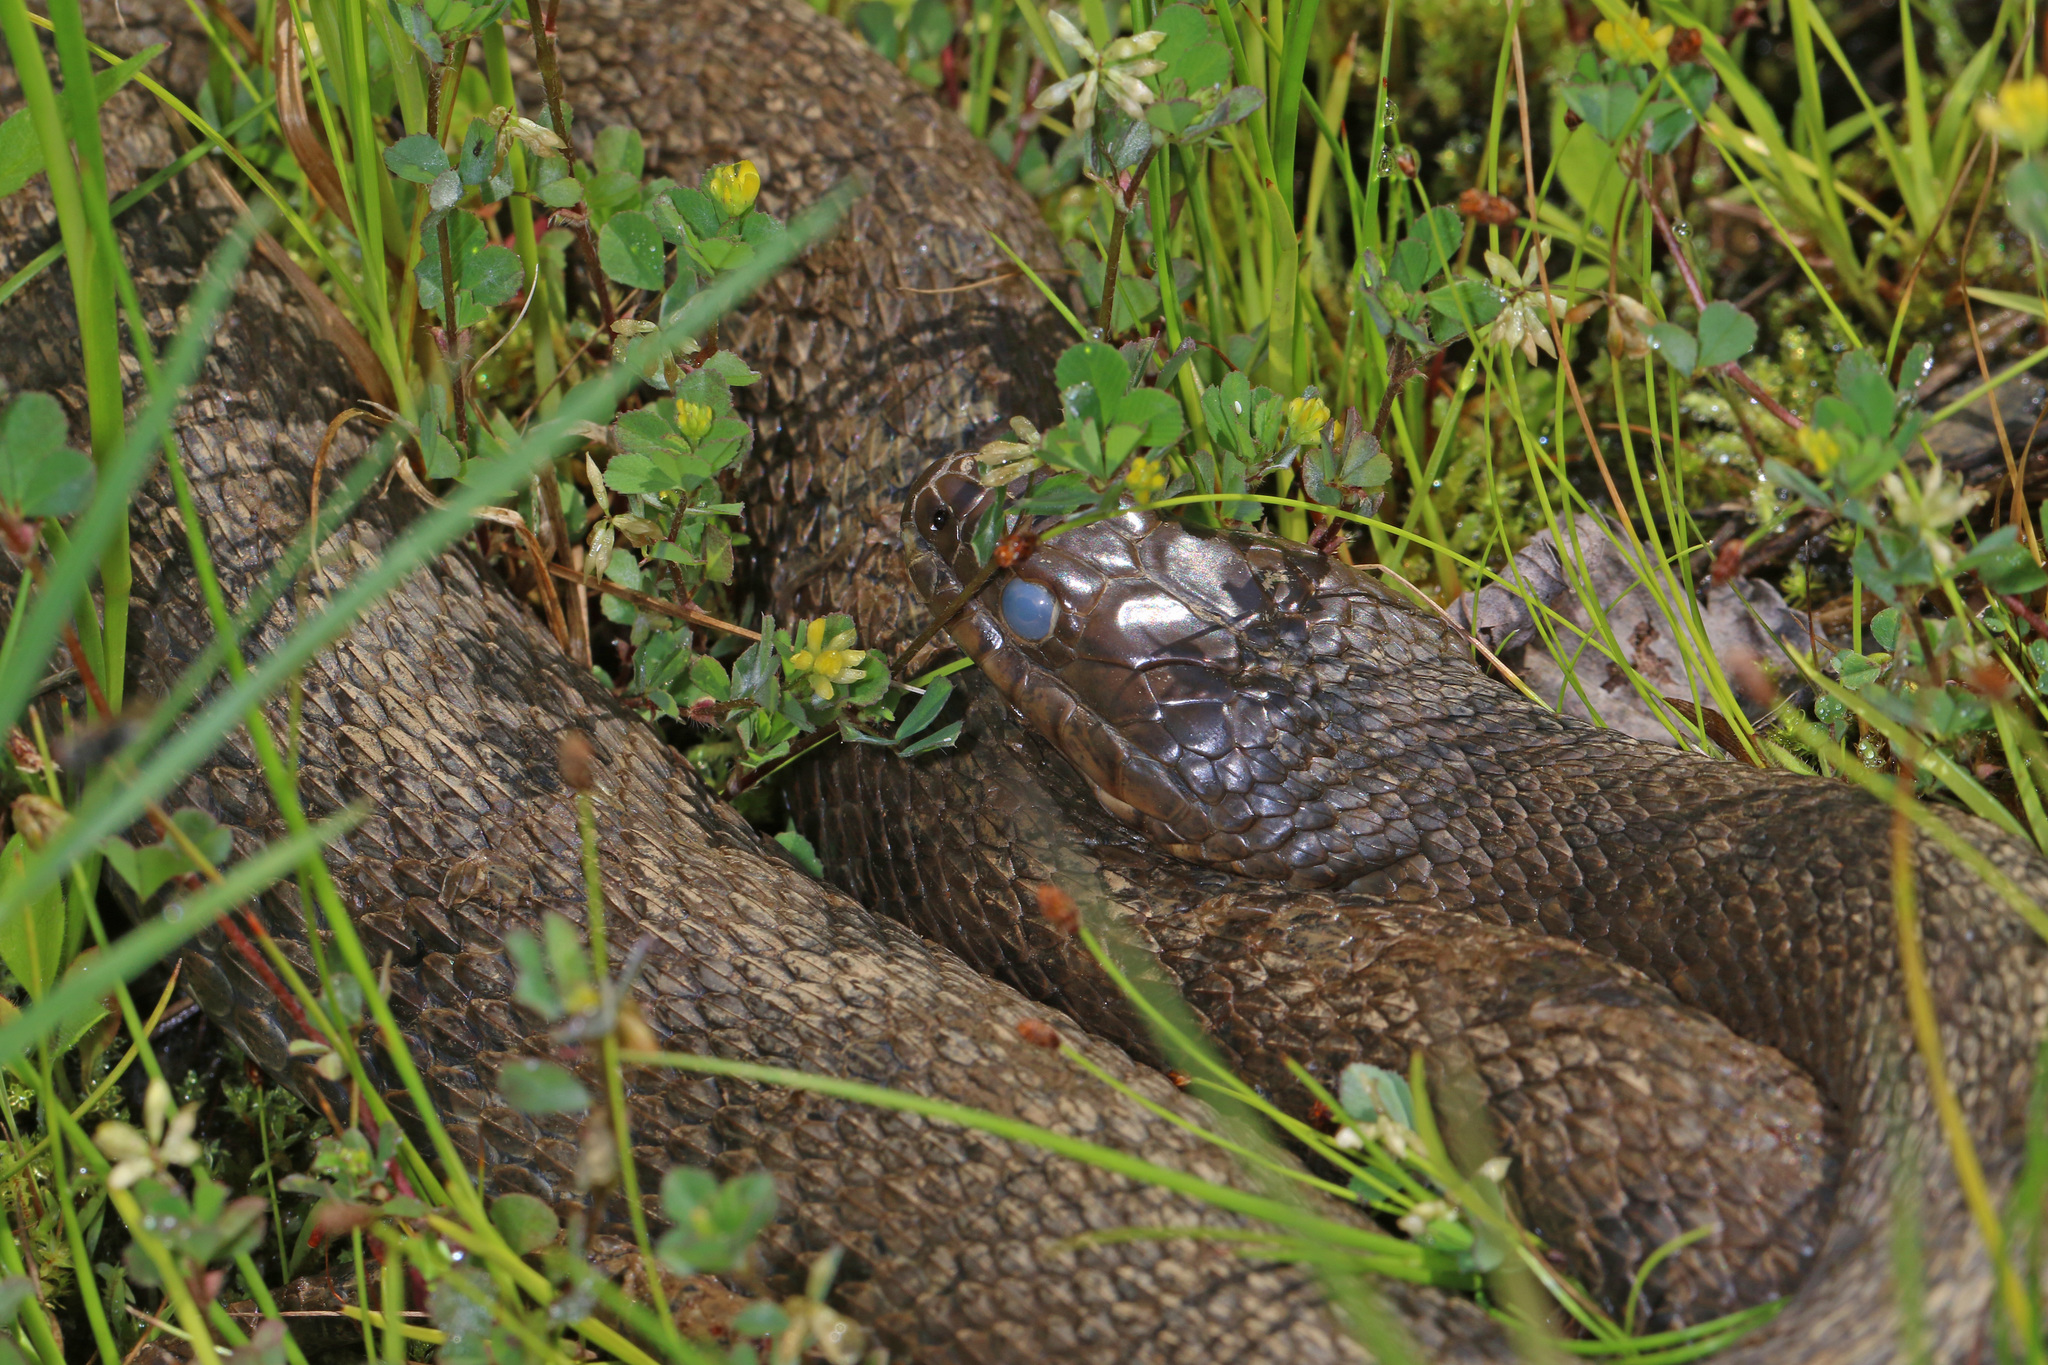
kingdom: Animalia
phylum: Chordata
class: Squamata
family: Colubridae
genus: Nerodia
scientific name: Nerodia sipedon
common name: Northern water snake
